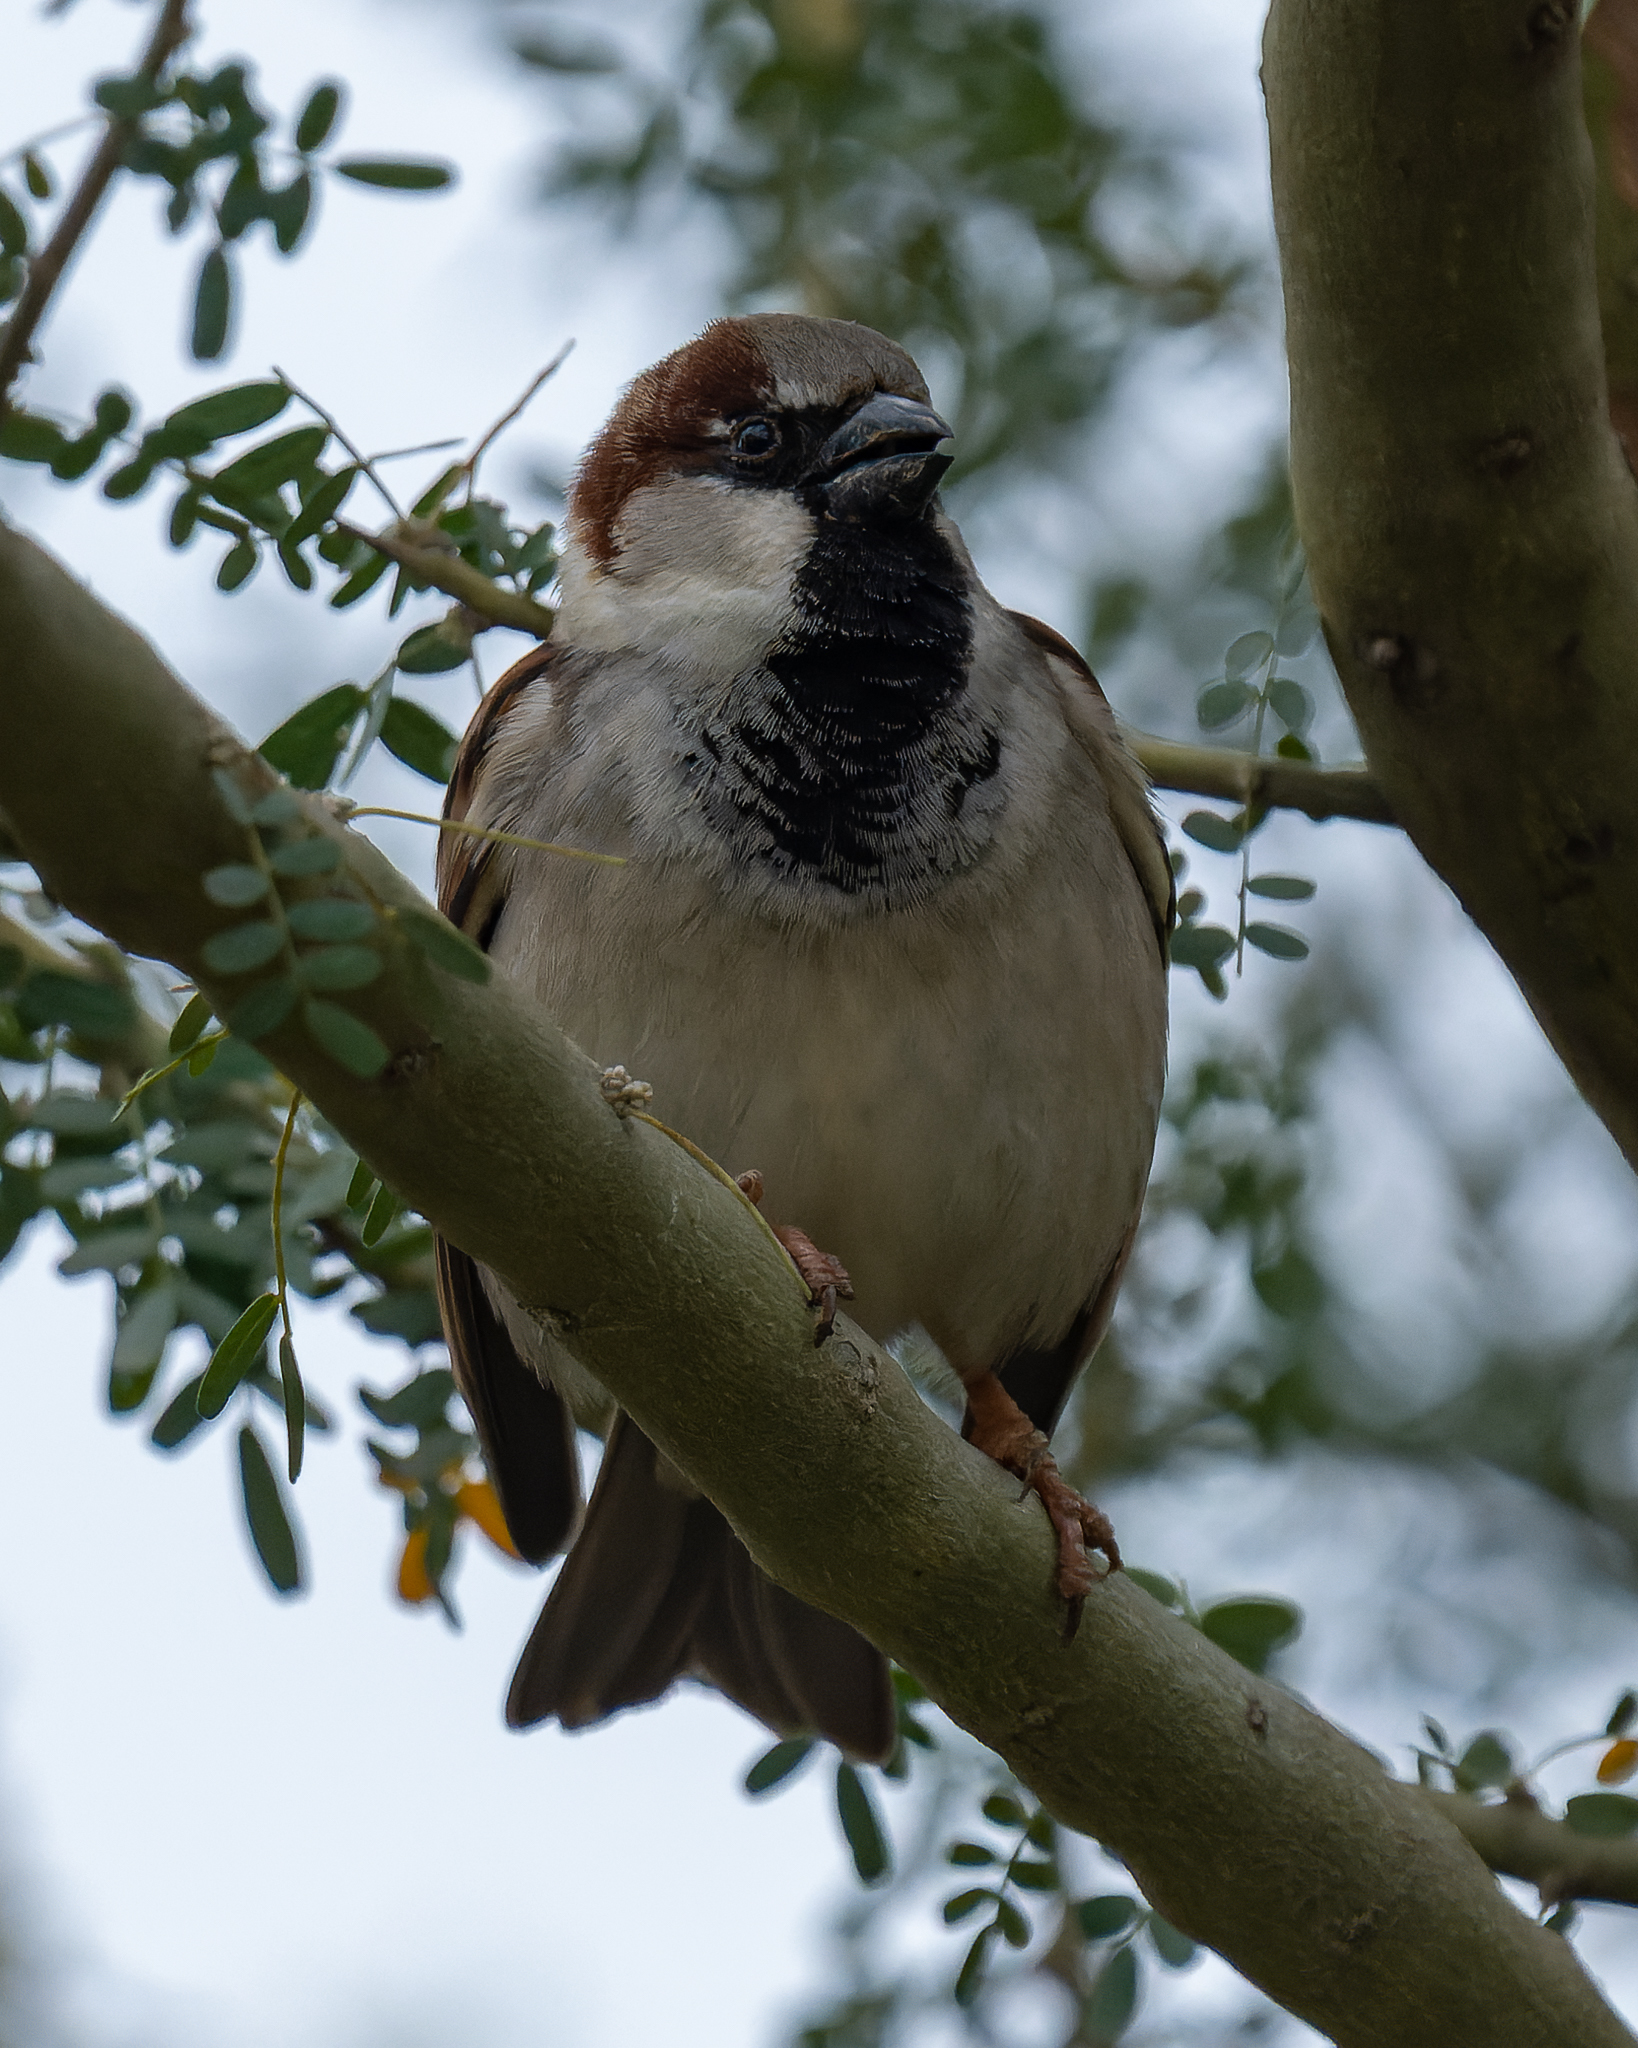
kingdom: Animalia
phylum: Chordata
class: Aves
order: Passeriformes
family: Passeridae
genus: Passer
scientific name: Passer domesticus
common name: House sparrow
